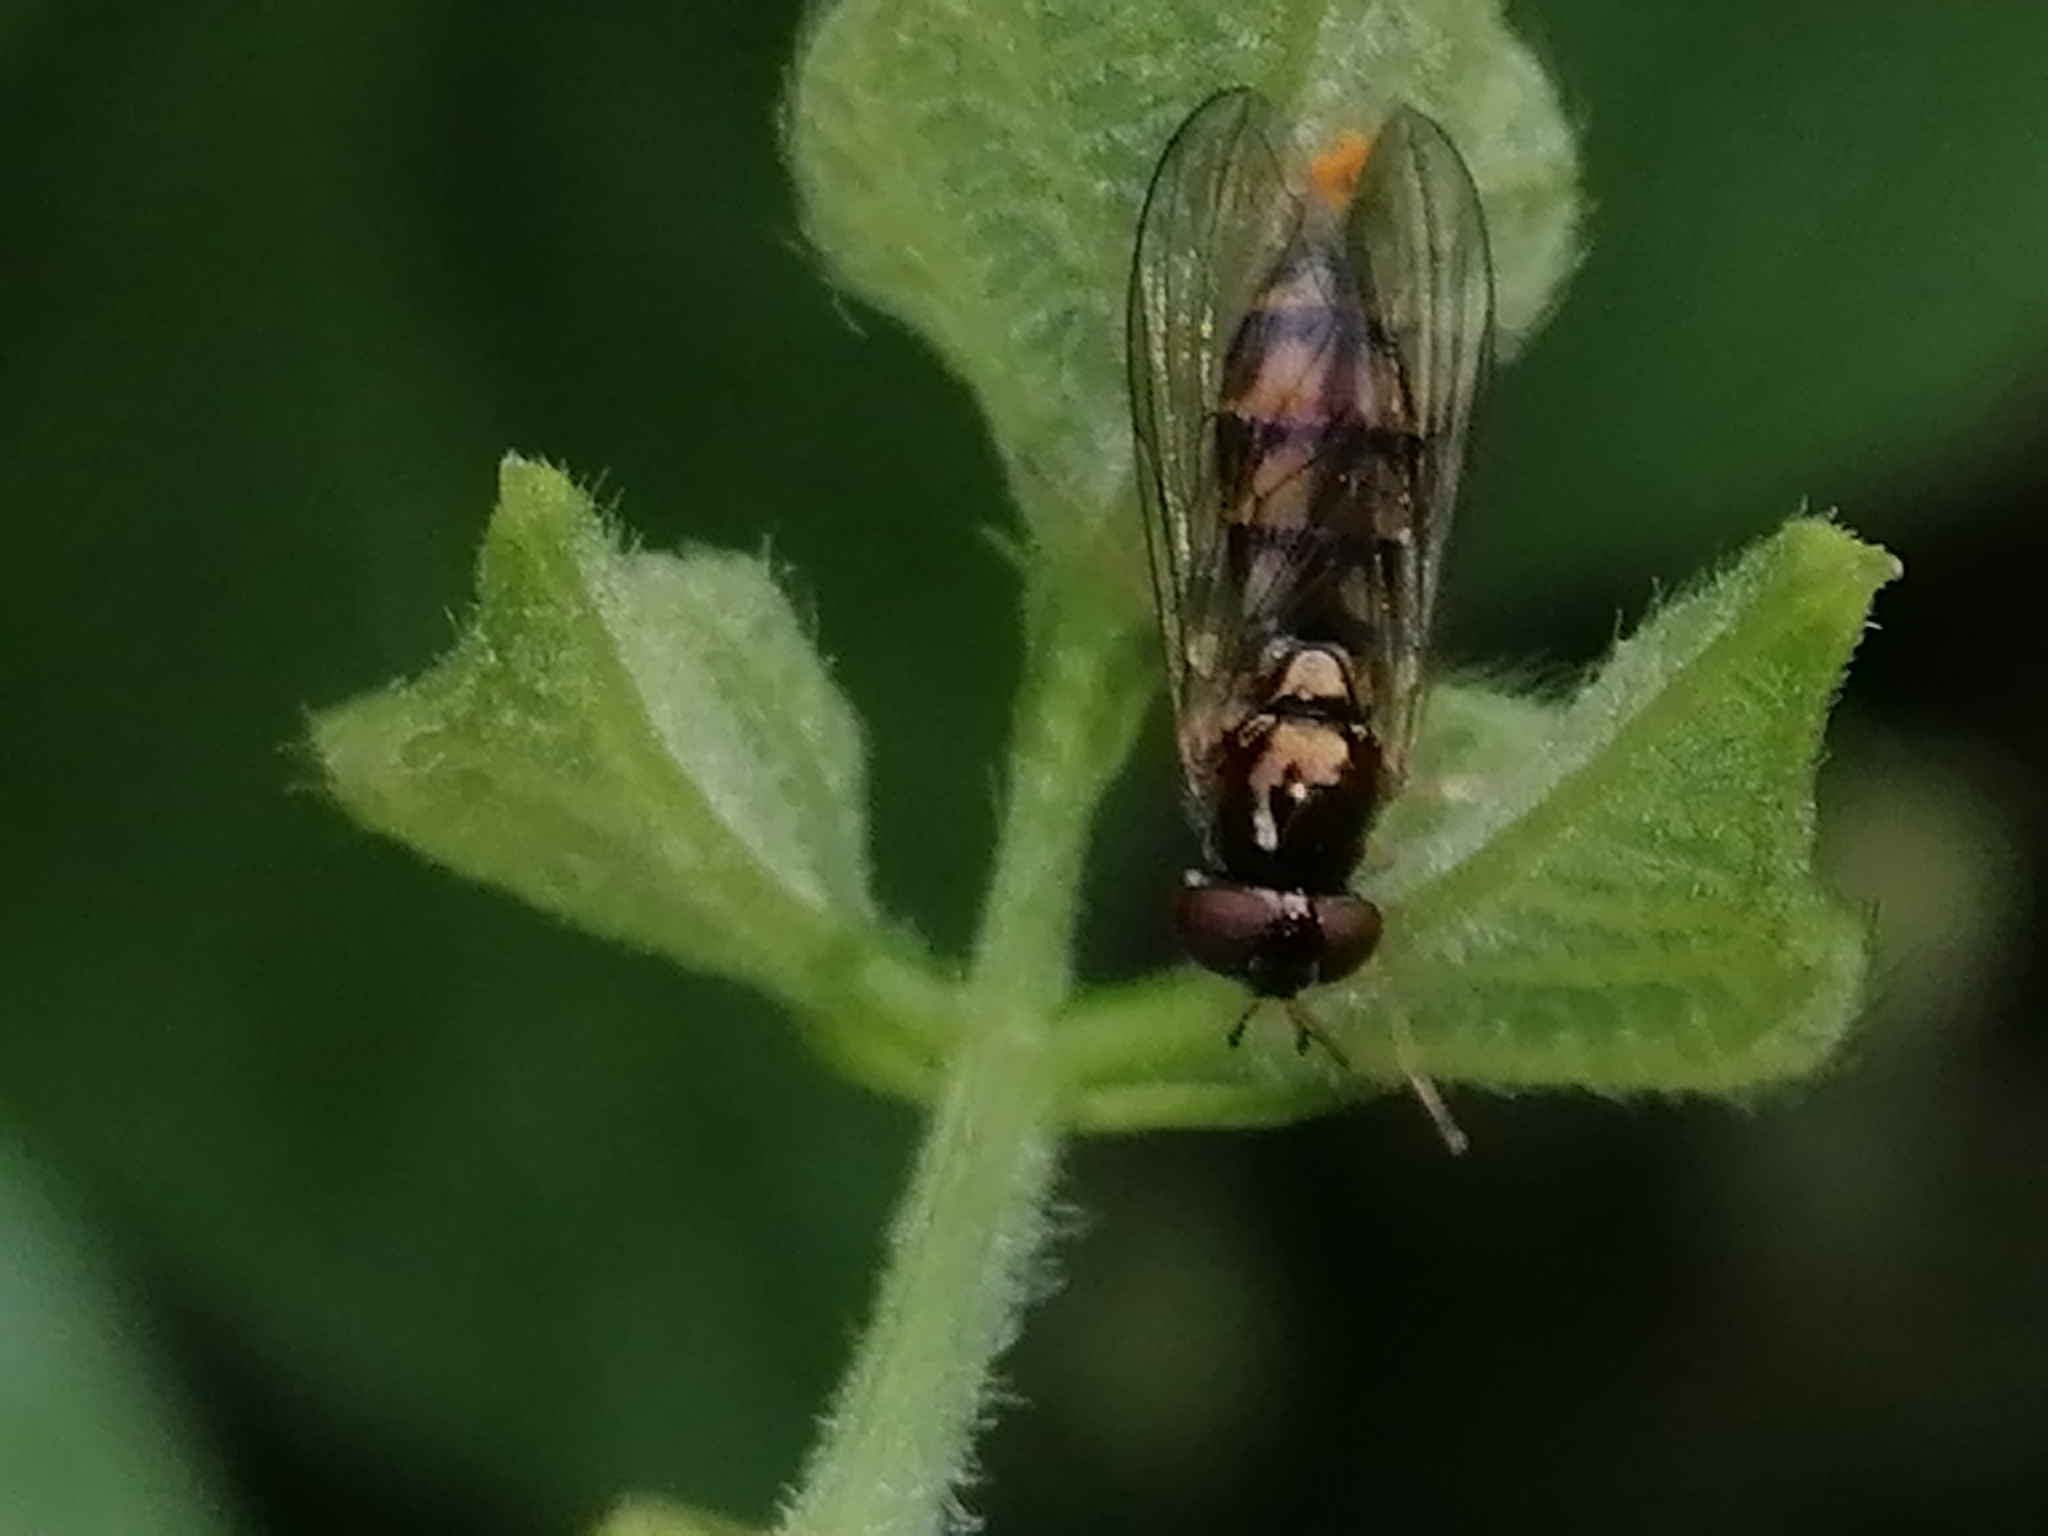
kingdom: Animalia
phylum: Arthropoda
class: Insecta
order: Diptera
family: Syrphidae
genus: Melanostoma
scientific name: Melanostoma fasciatum
